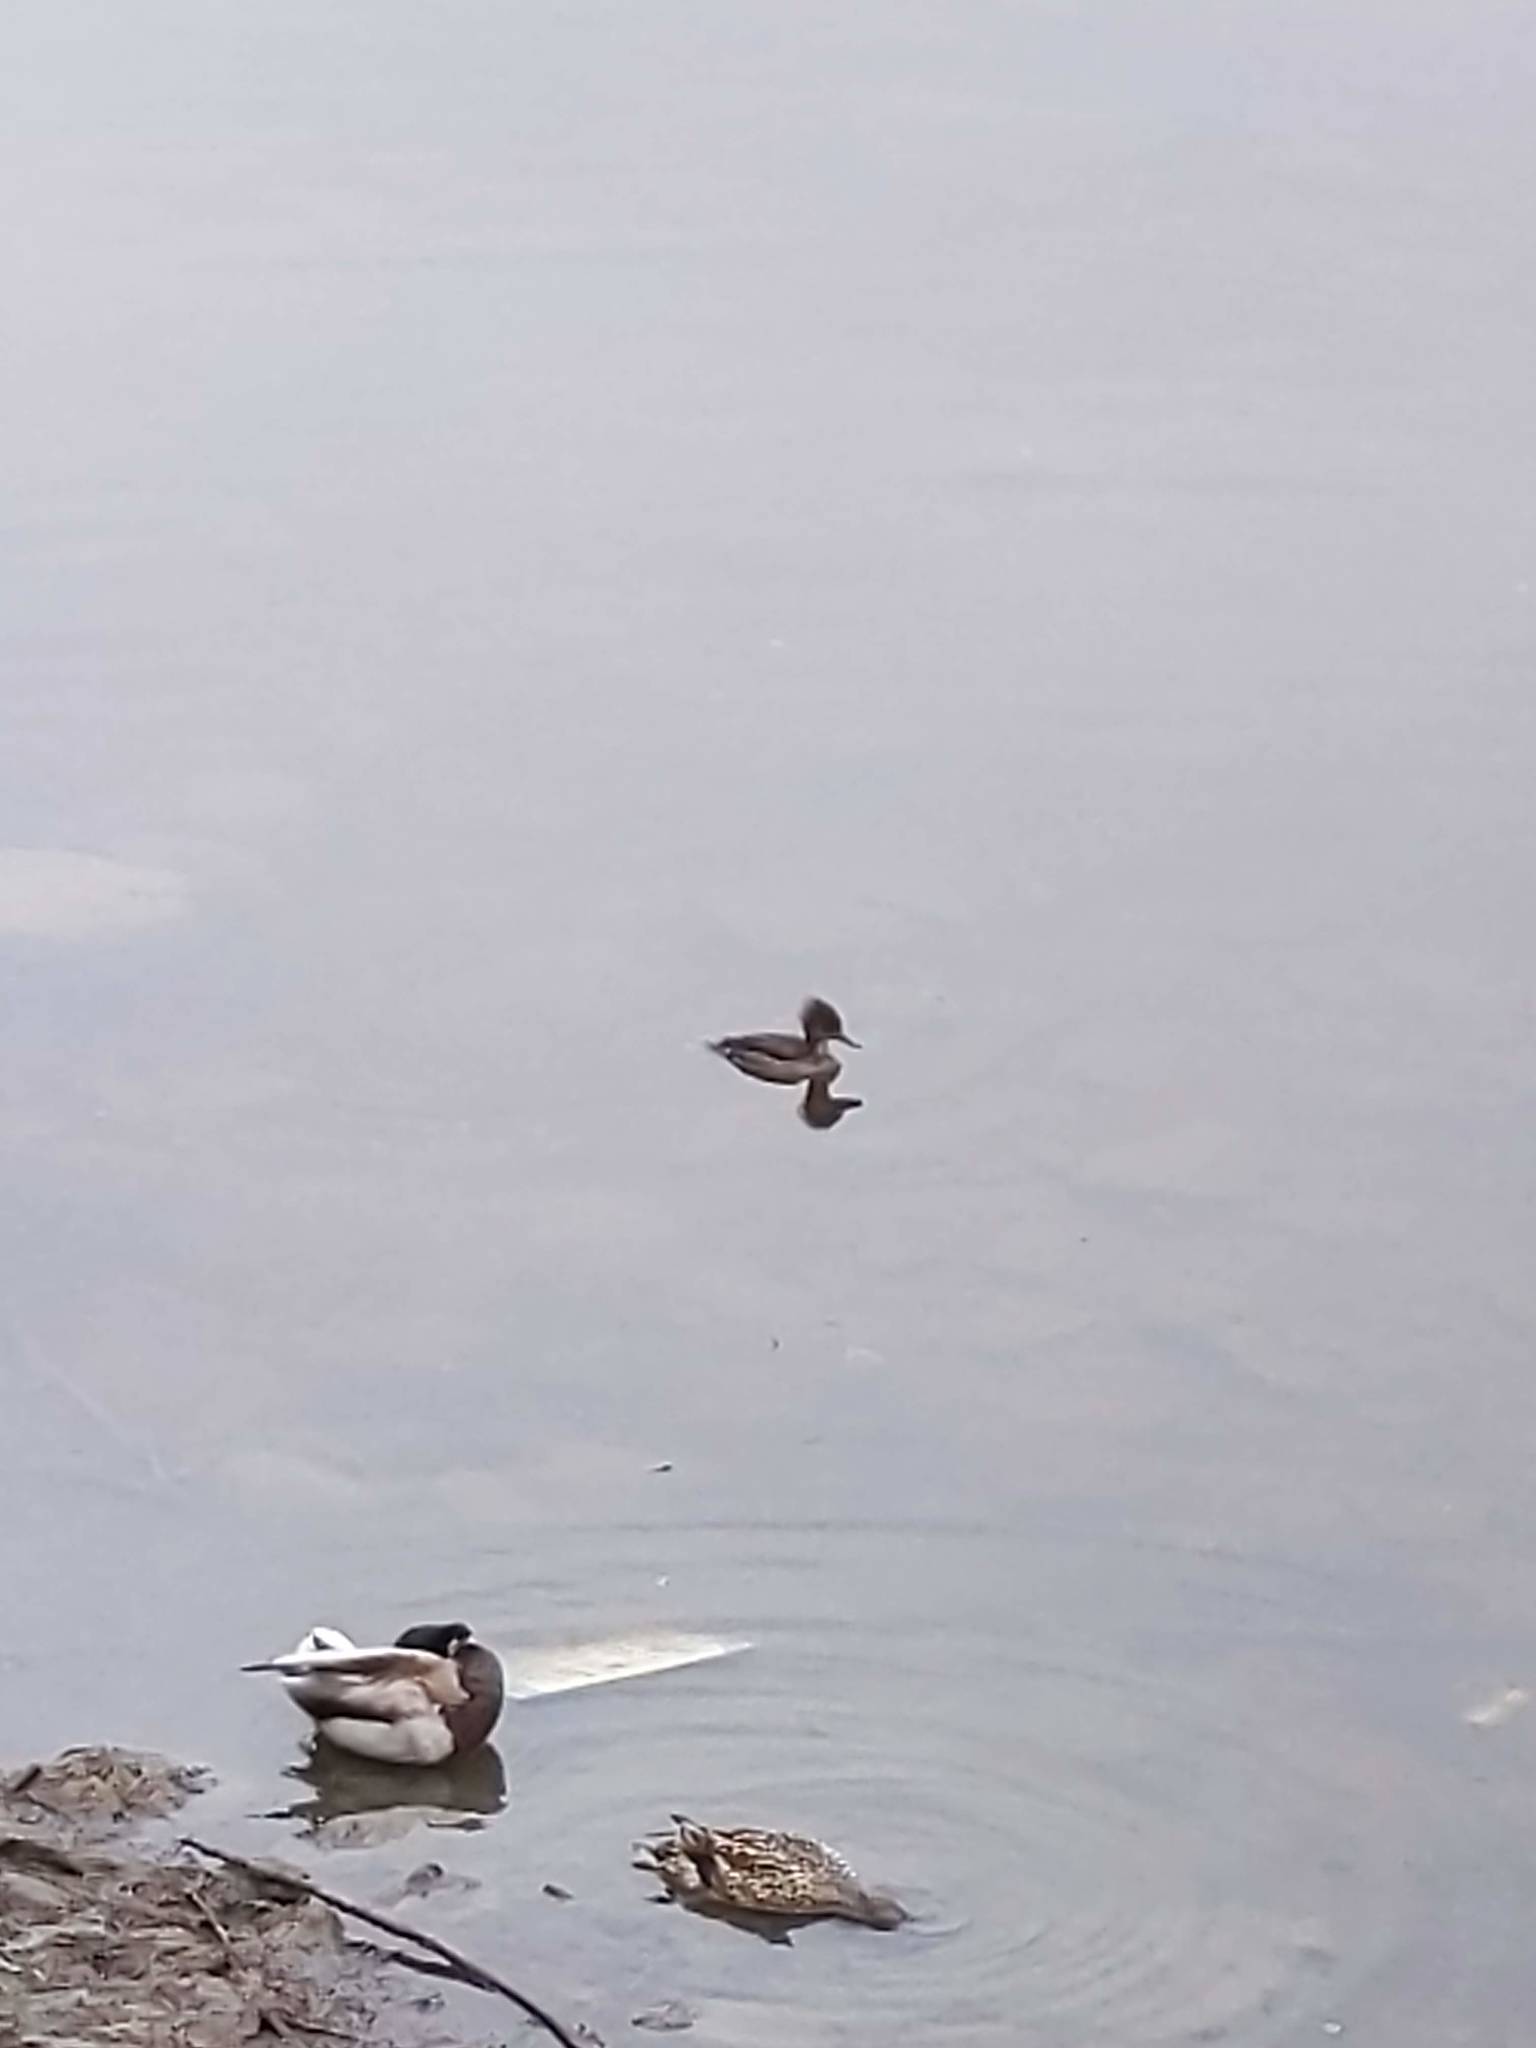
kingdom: Animalia
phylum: Chordata
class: Aves
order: Anseriformes
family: Anatidae
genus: Lophodytes
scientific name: Lophodytes cucullatus
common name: Hooded merganser
